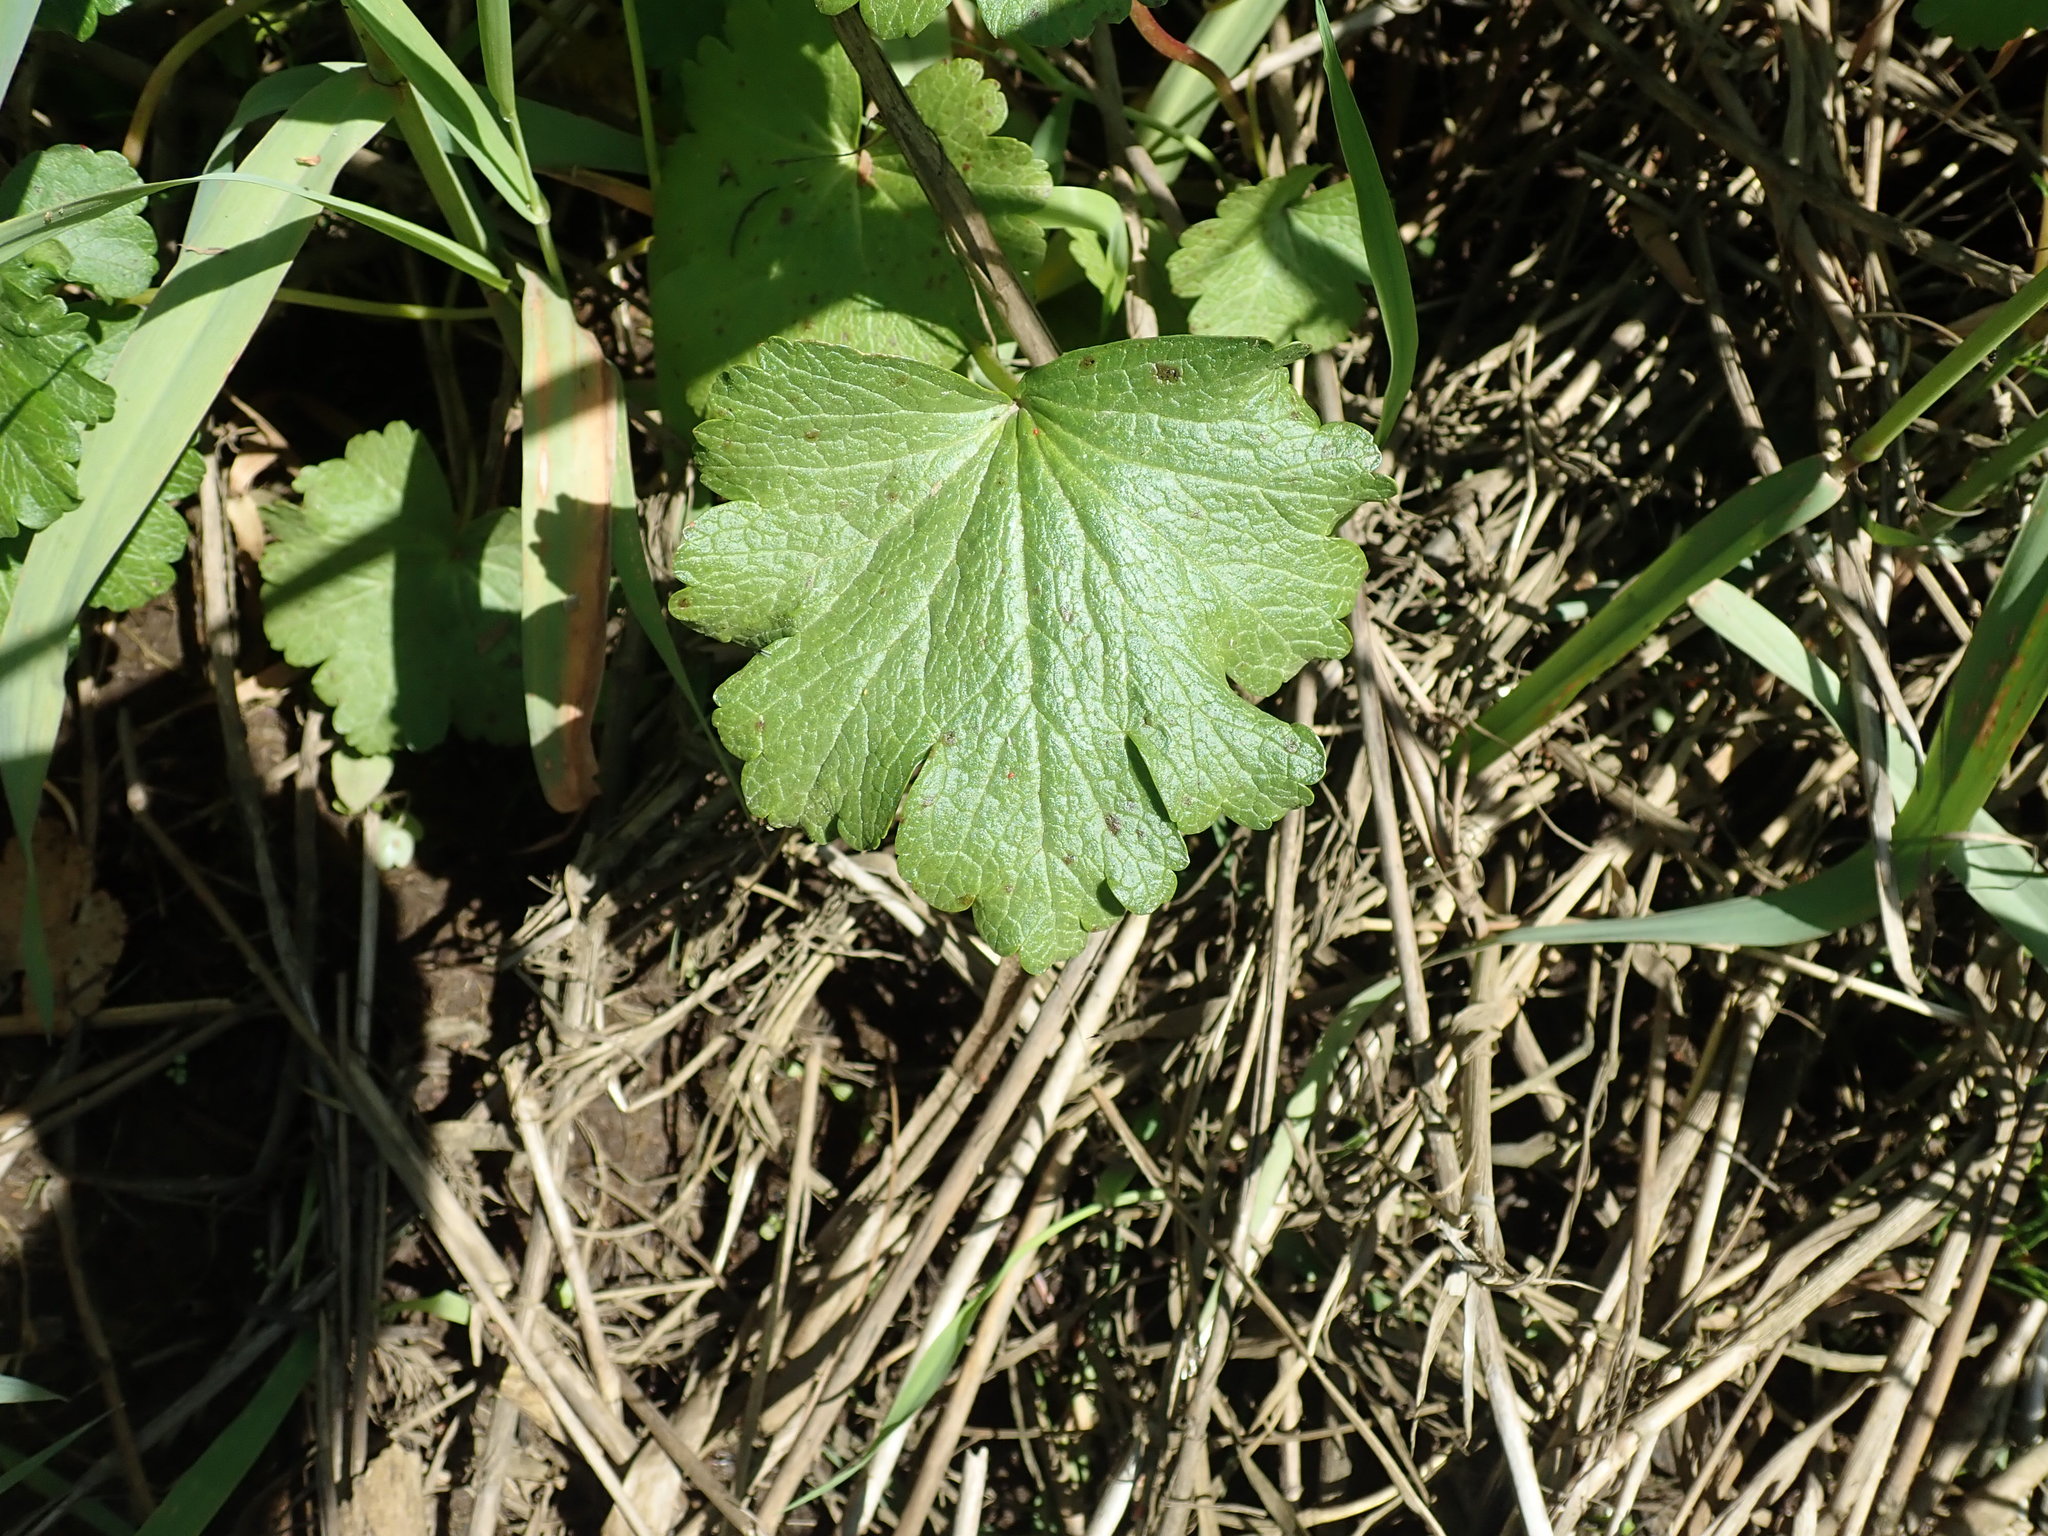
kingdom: Plantae
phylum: Tracheophyta
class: Magnoliopsida
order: Malvales
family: Malvaceae
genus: Sidalcea
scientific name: Sidalcea hendersonii
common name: Mallow
